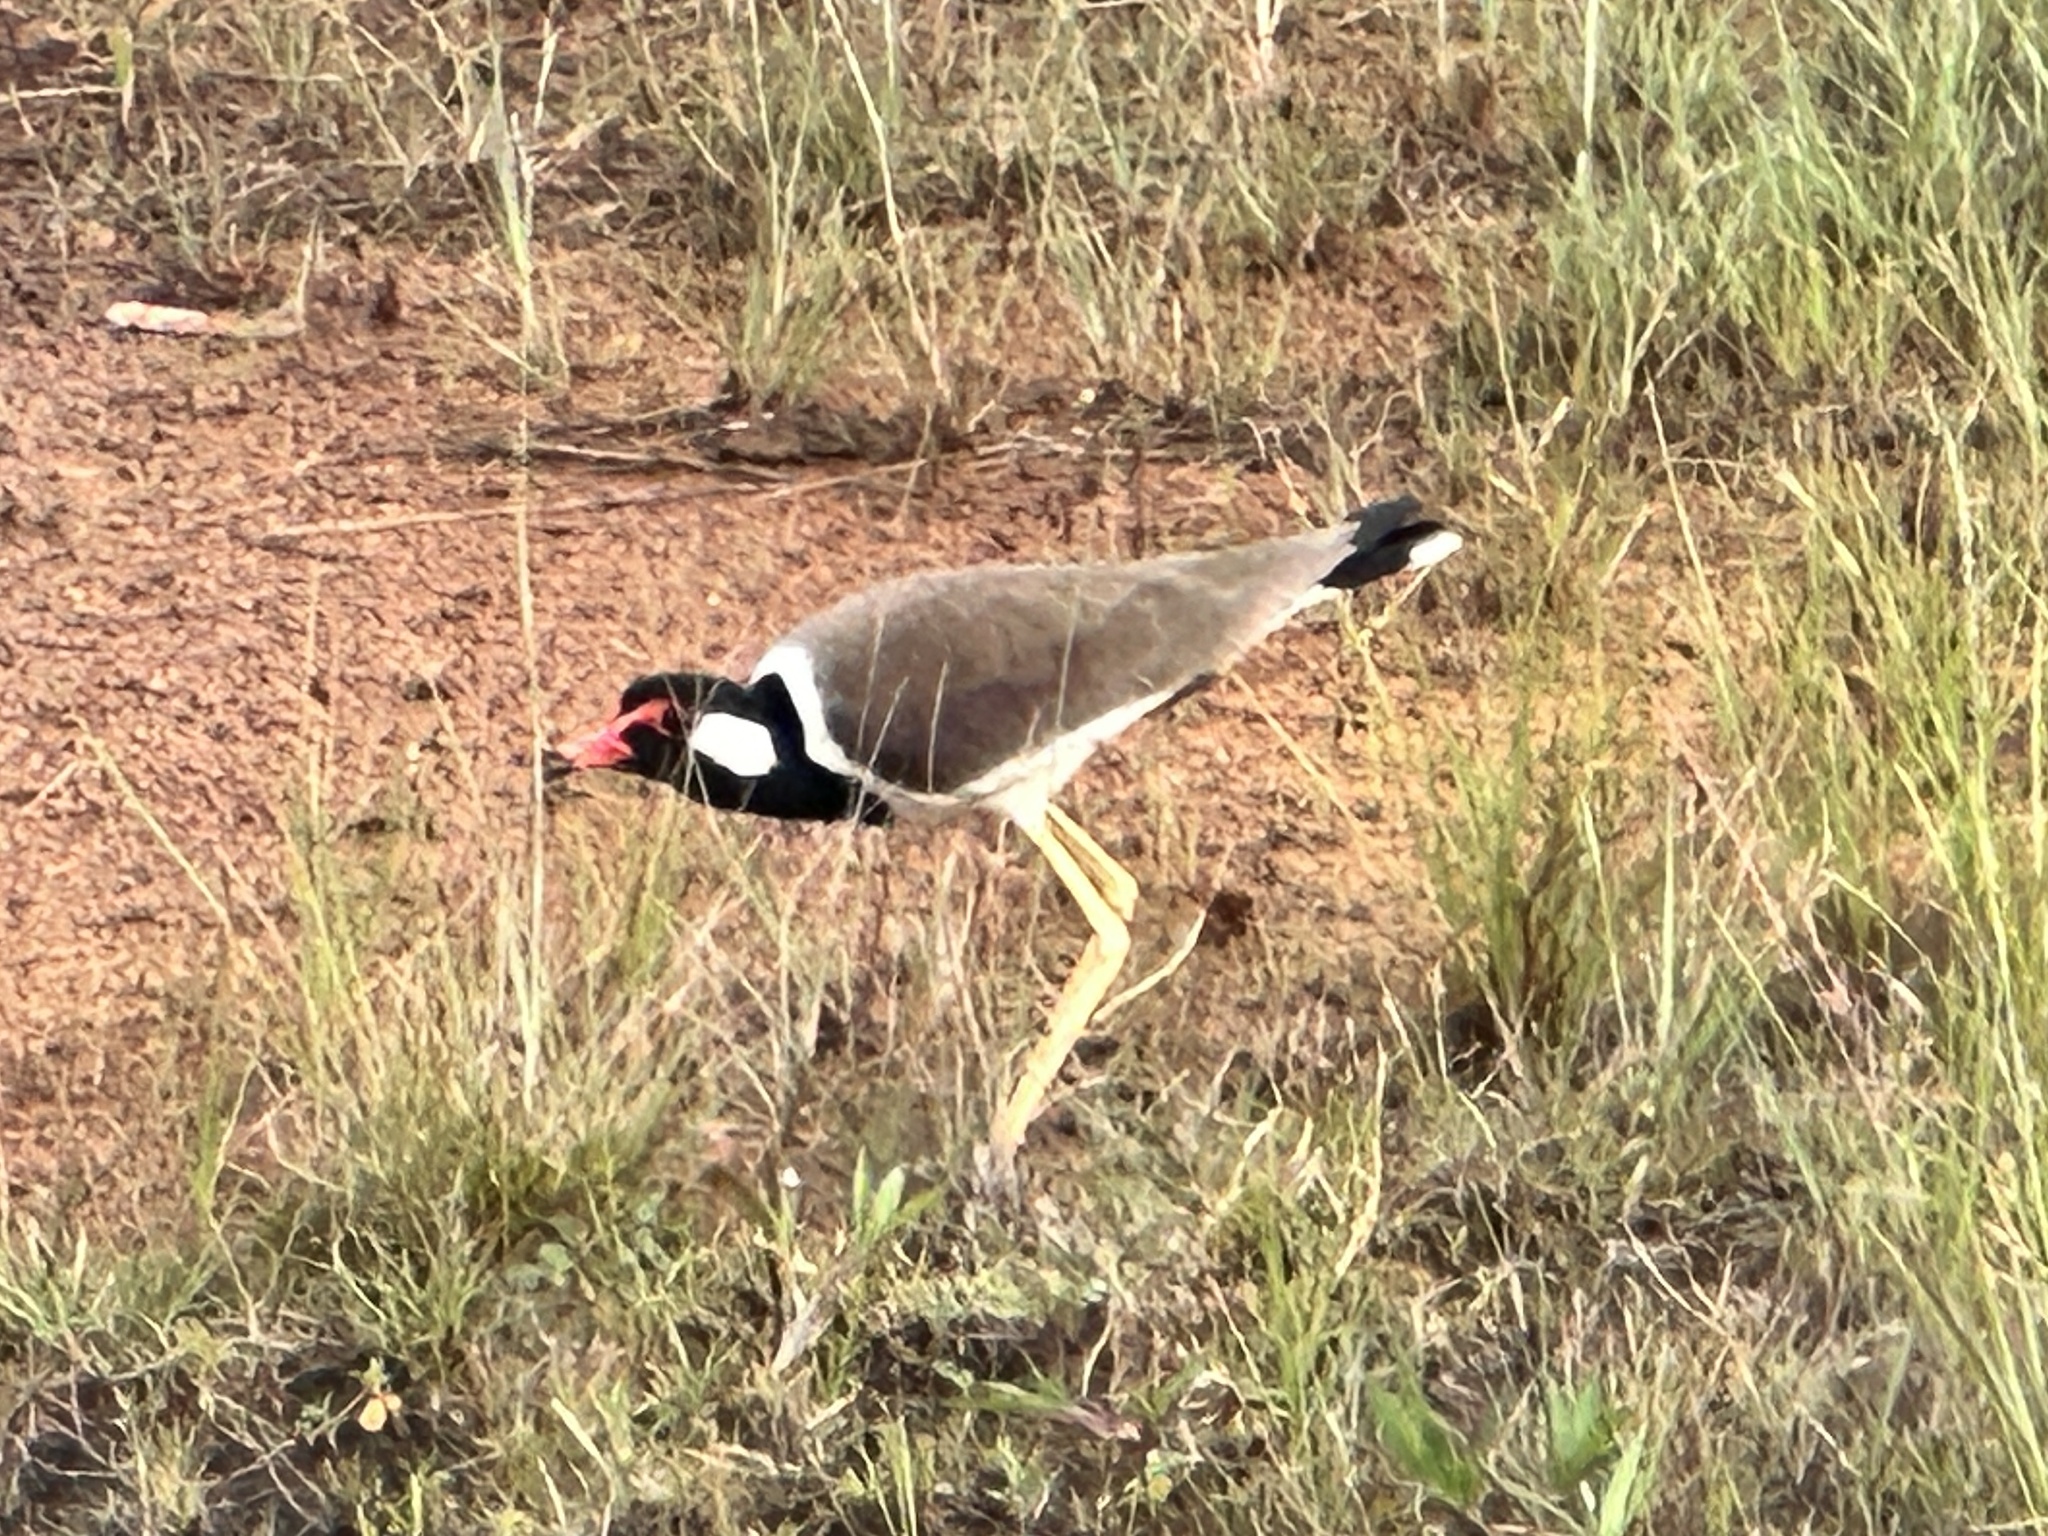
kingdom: Animalia
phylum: Chordata
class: Aves
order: Charadriiformes
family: Charadriidae
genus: Vanellus
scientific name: Vanellus indicus
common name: Red-wattled lapwing
